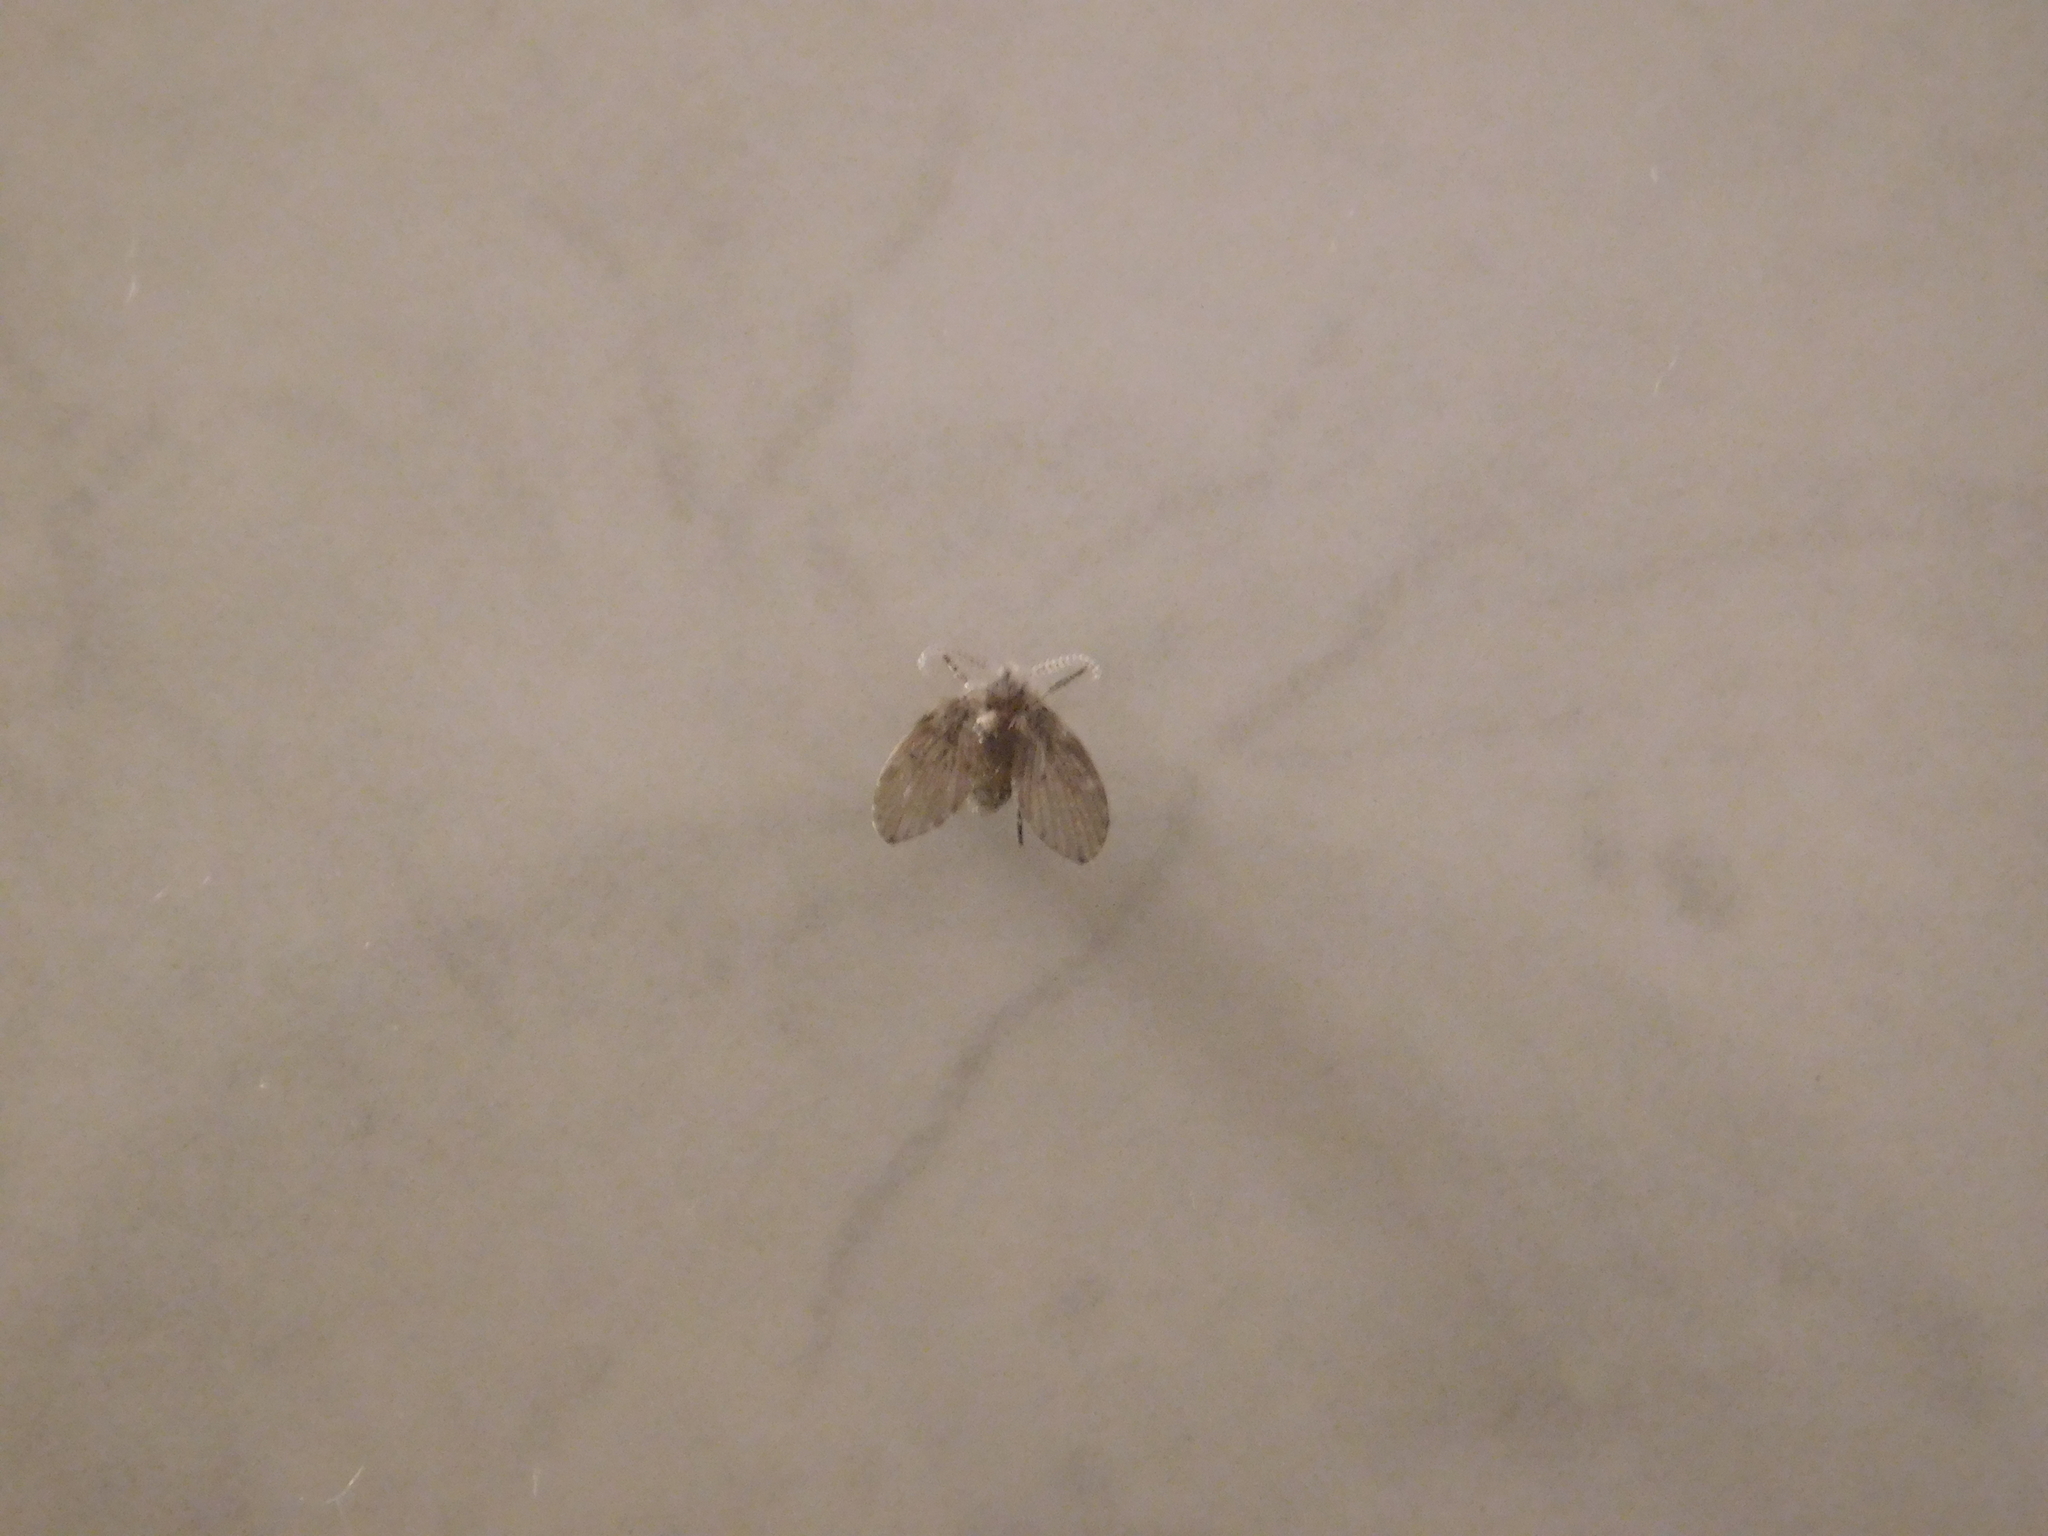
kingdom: Animalia
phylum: Arthropoda
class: Insecta
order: Diptera
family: Psychodidae
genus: Clogmia
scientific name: Clogmia albipunctatus
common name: White-spotted moth fly
